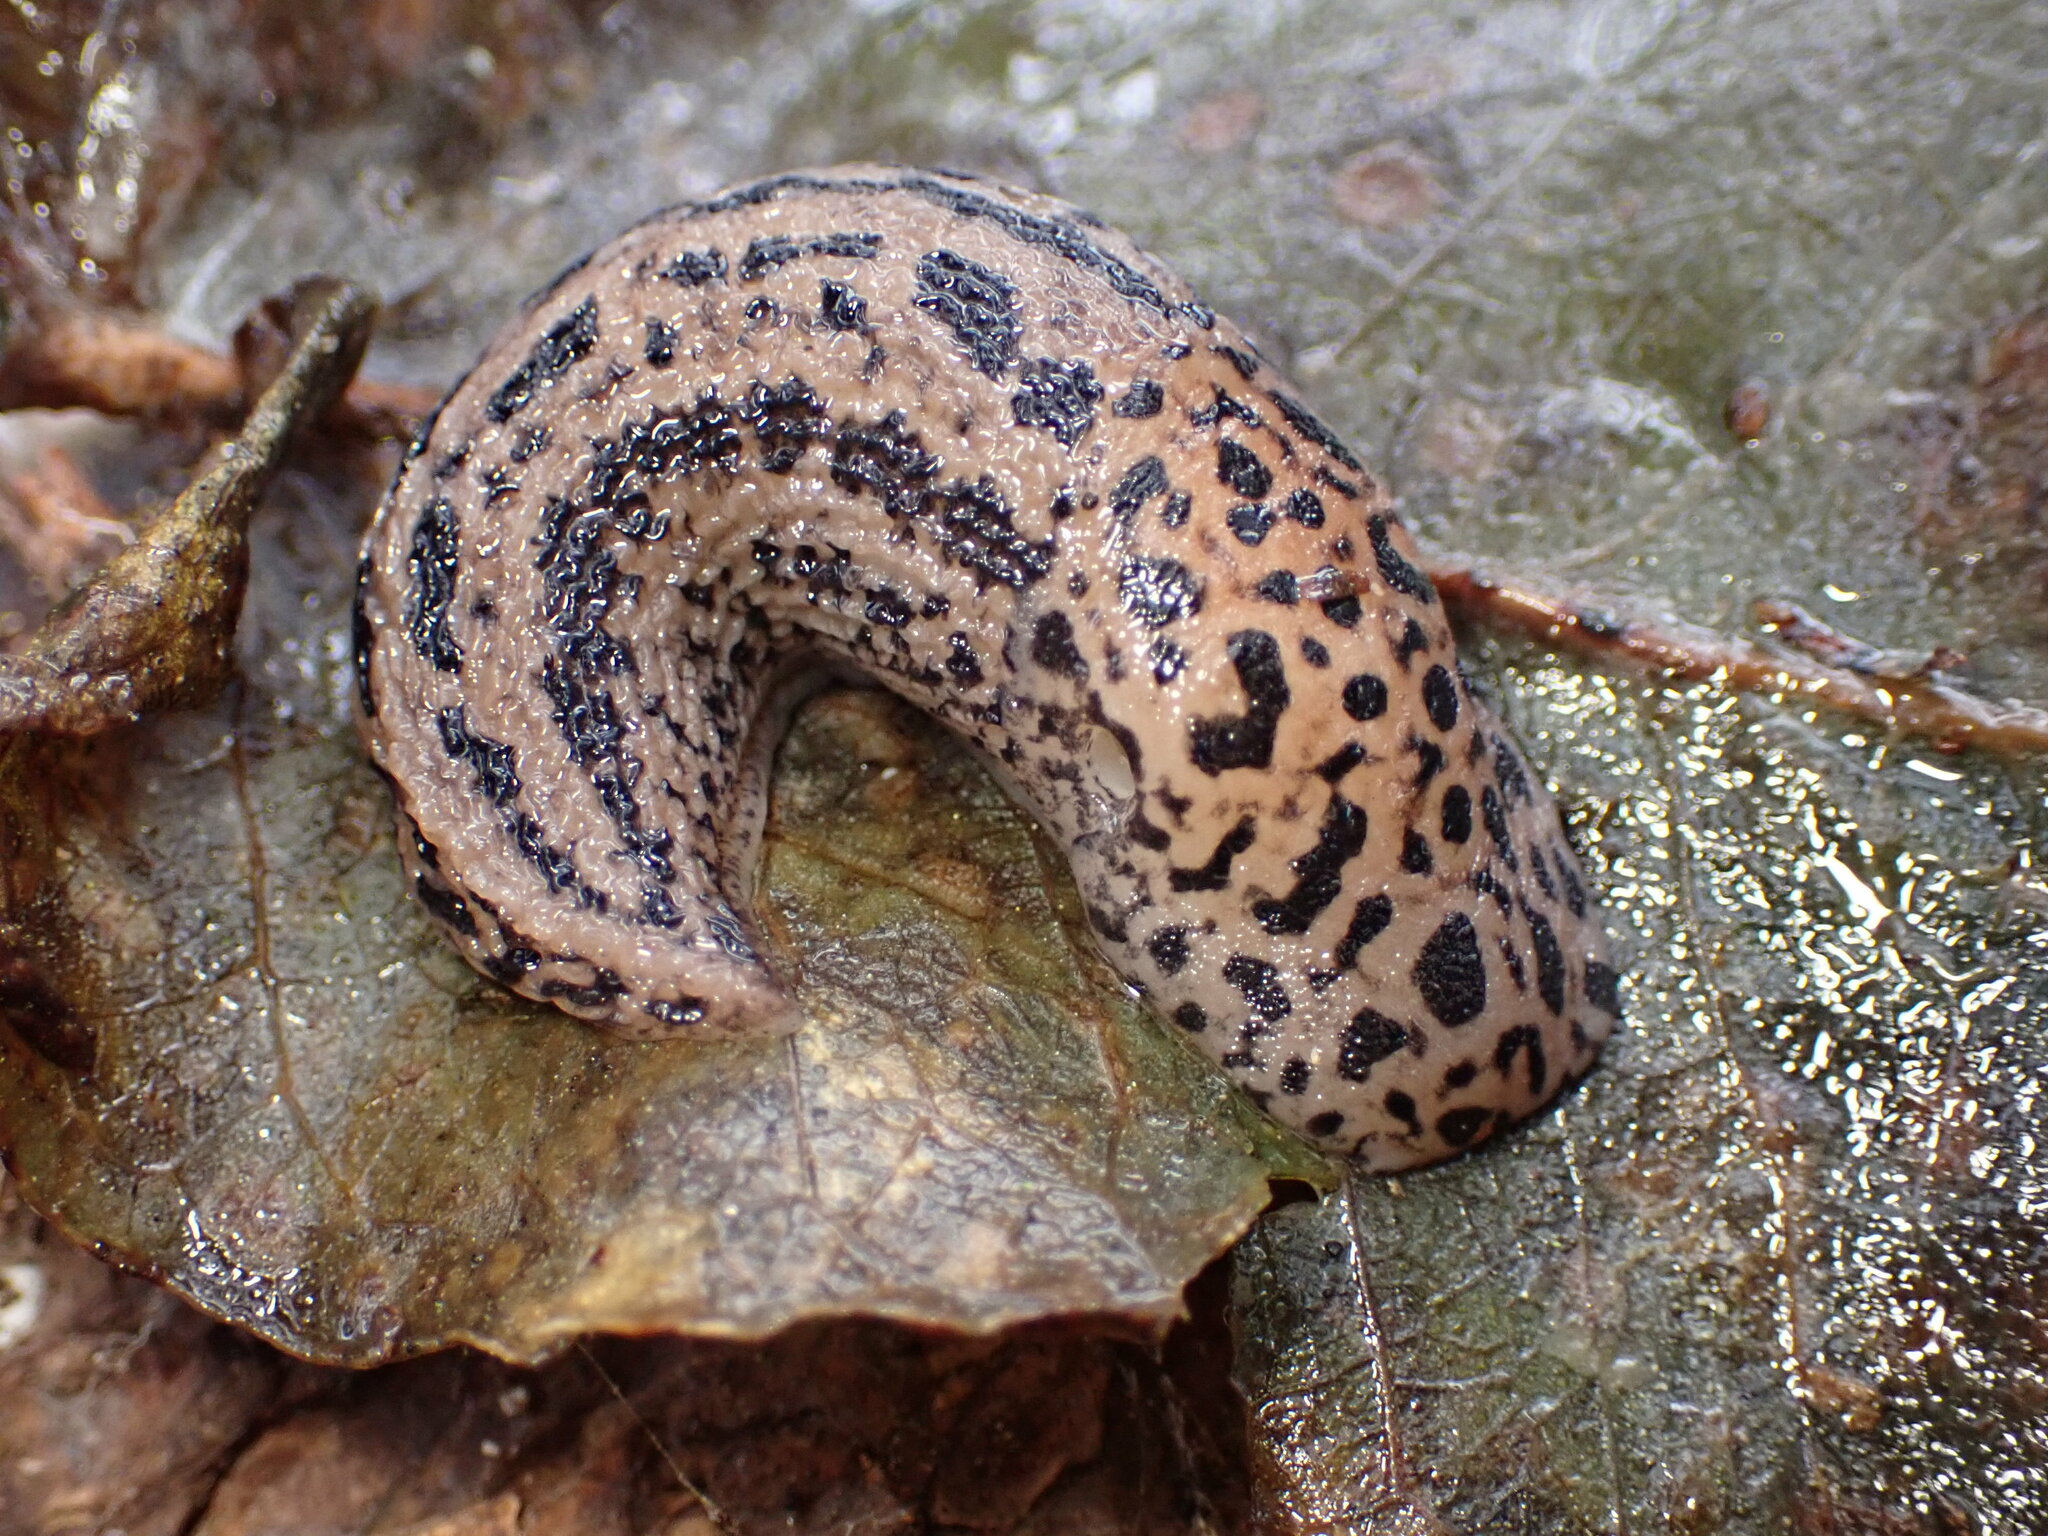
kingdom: Animalia
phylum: Mollusca
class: Gastropoda
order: Stylommatophora
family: Limacidae
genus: Limax
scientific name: Limax maximus
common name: Great grey slug
